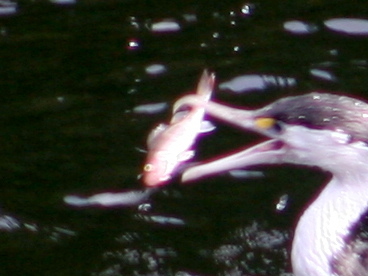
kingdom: Animalia
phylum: Chordata
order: Perciformes
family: Percidae
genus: Perca
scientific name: Perca fluviatilis
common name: Perch
